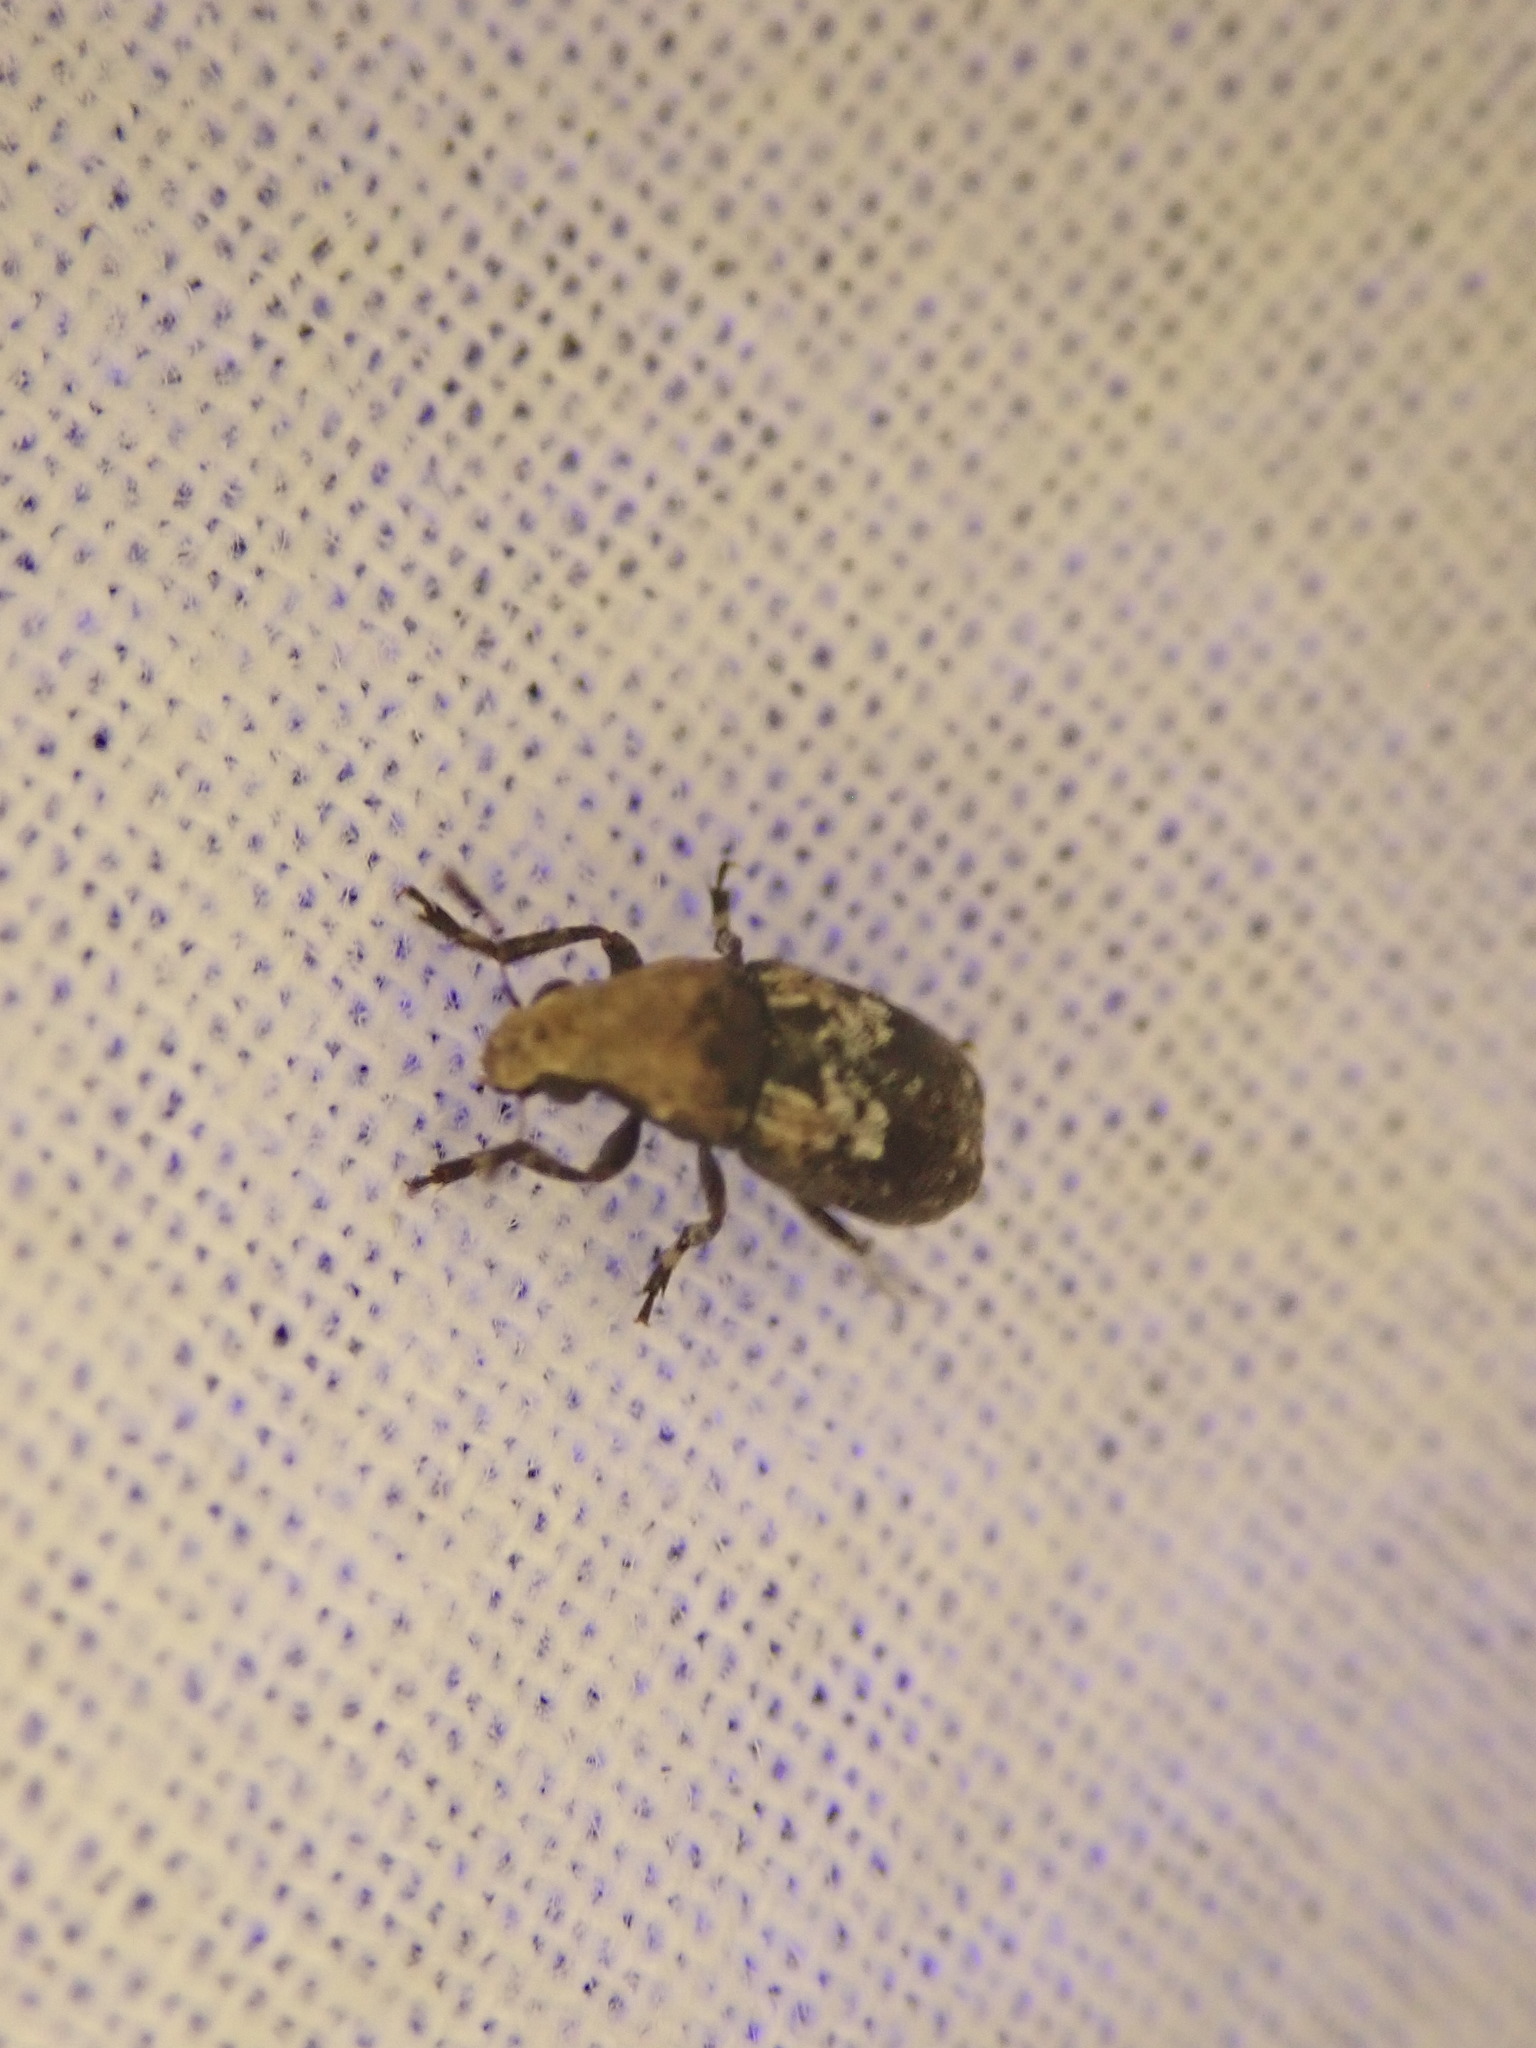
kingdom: Animalia
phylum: Arthropoda
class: Insecta
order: Coleoptera
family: Anthribidae
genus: Euparius
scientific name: Euparius marmoreus
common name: Marbled fungus weevil
